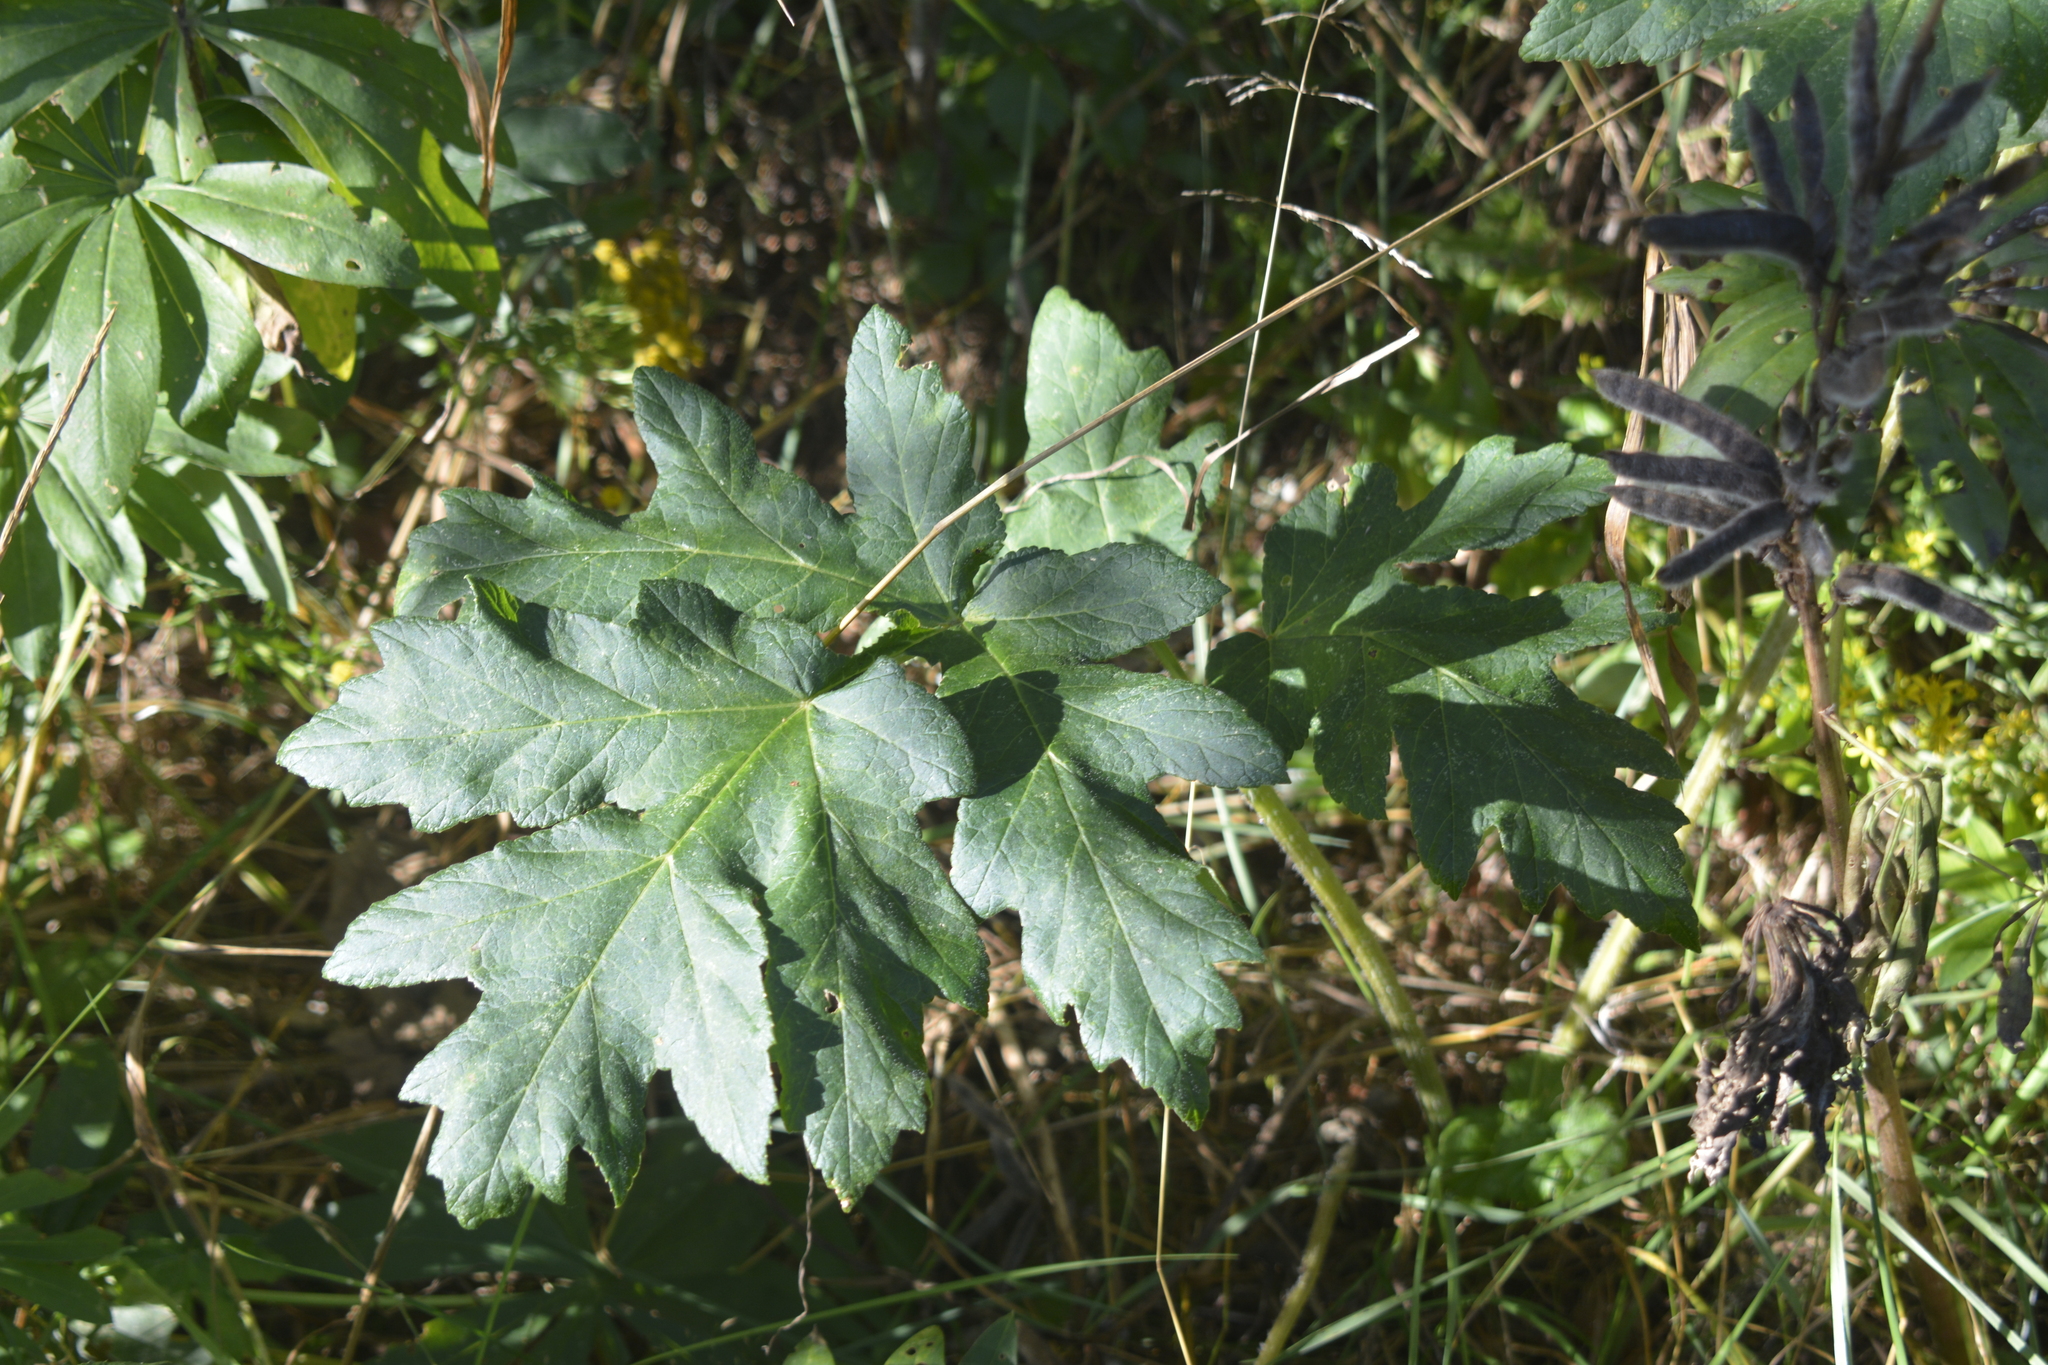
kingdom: Plantae
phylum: Tracheophyta
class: Magnoliopsida
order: Apiales
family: Apiaceae
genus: Heracleum
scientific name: Heracleum sphondylium
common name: Hogweed
